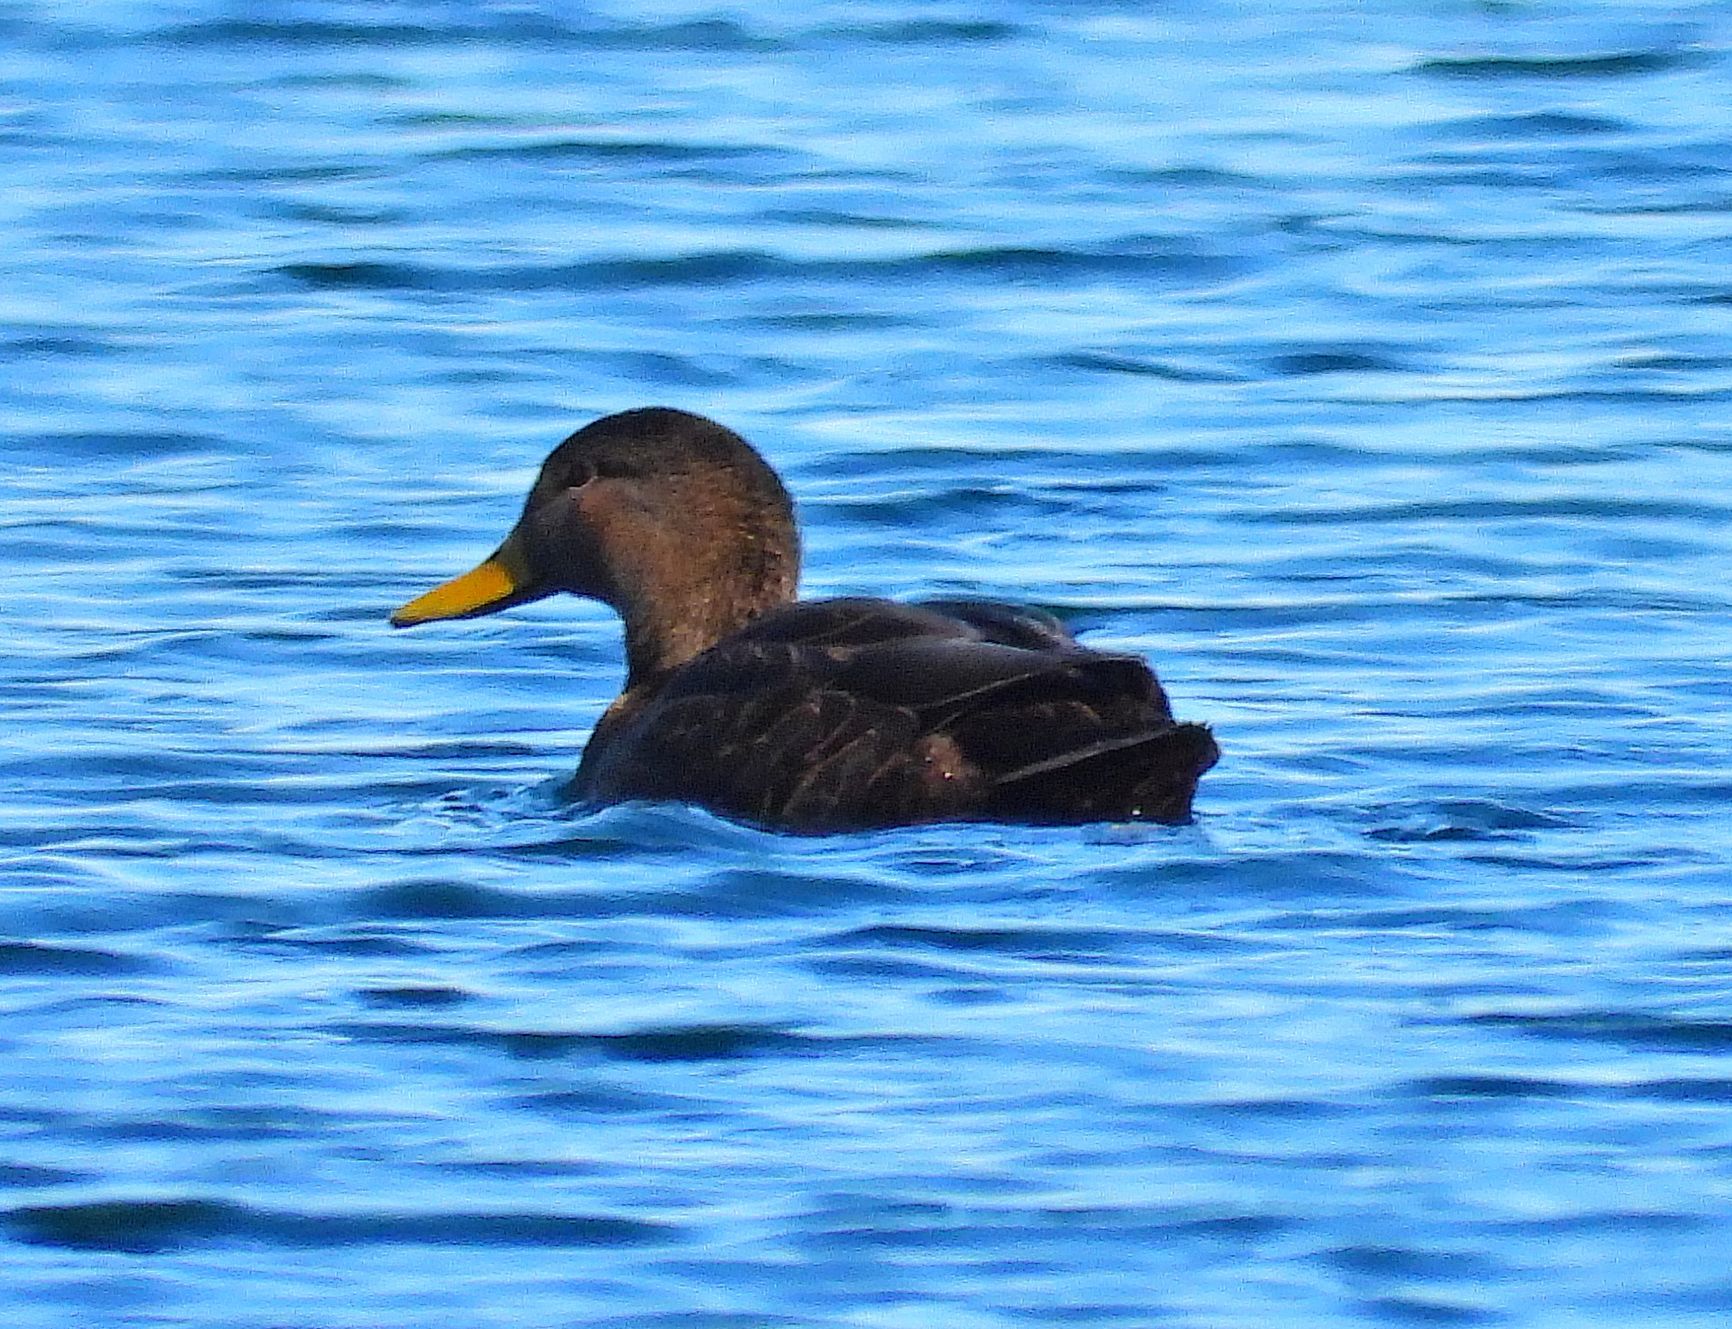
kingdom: Animalia
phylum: Chordata
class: Aves
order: Anseriformes
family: Anatidae
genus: Anas
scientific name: Anas rubripes
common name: American black duck
